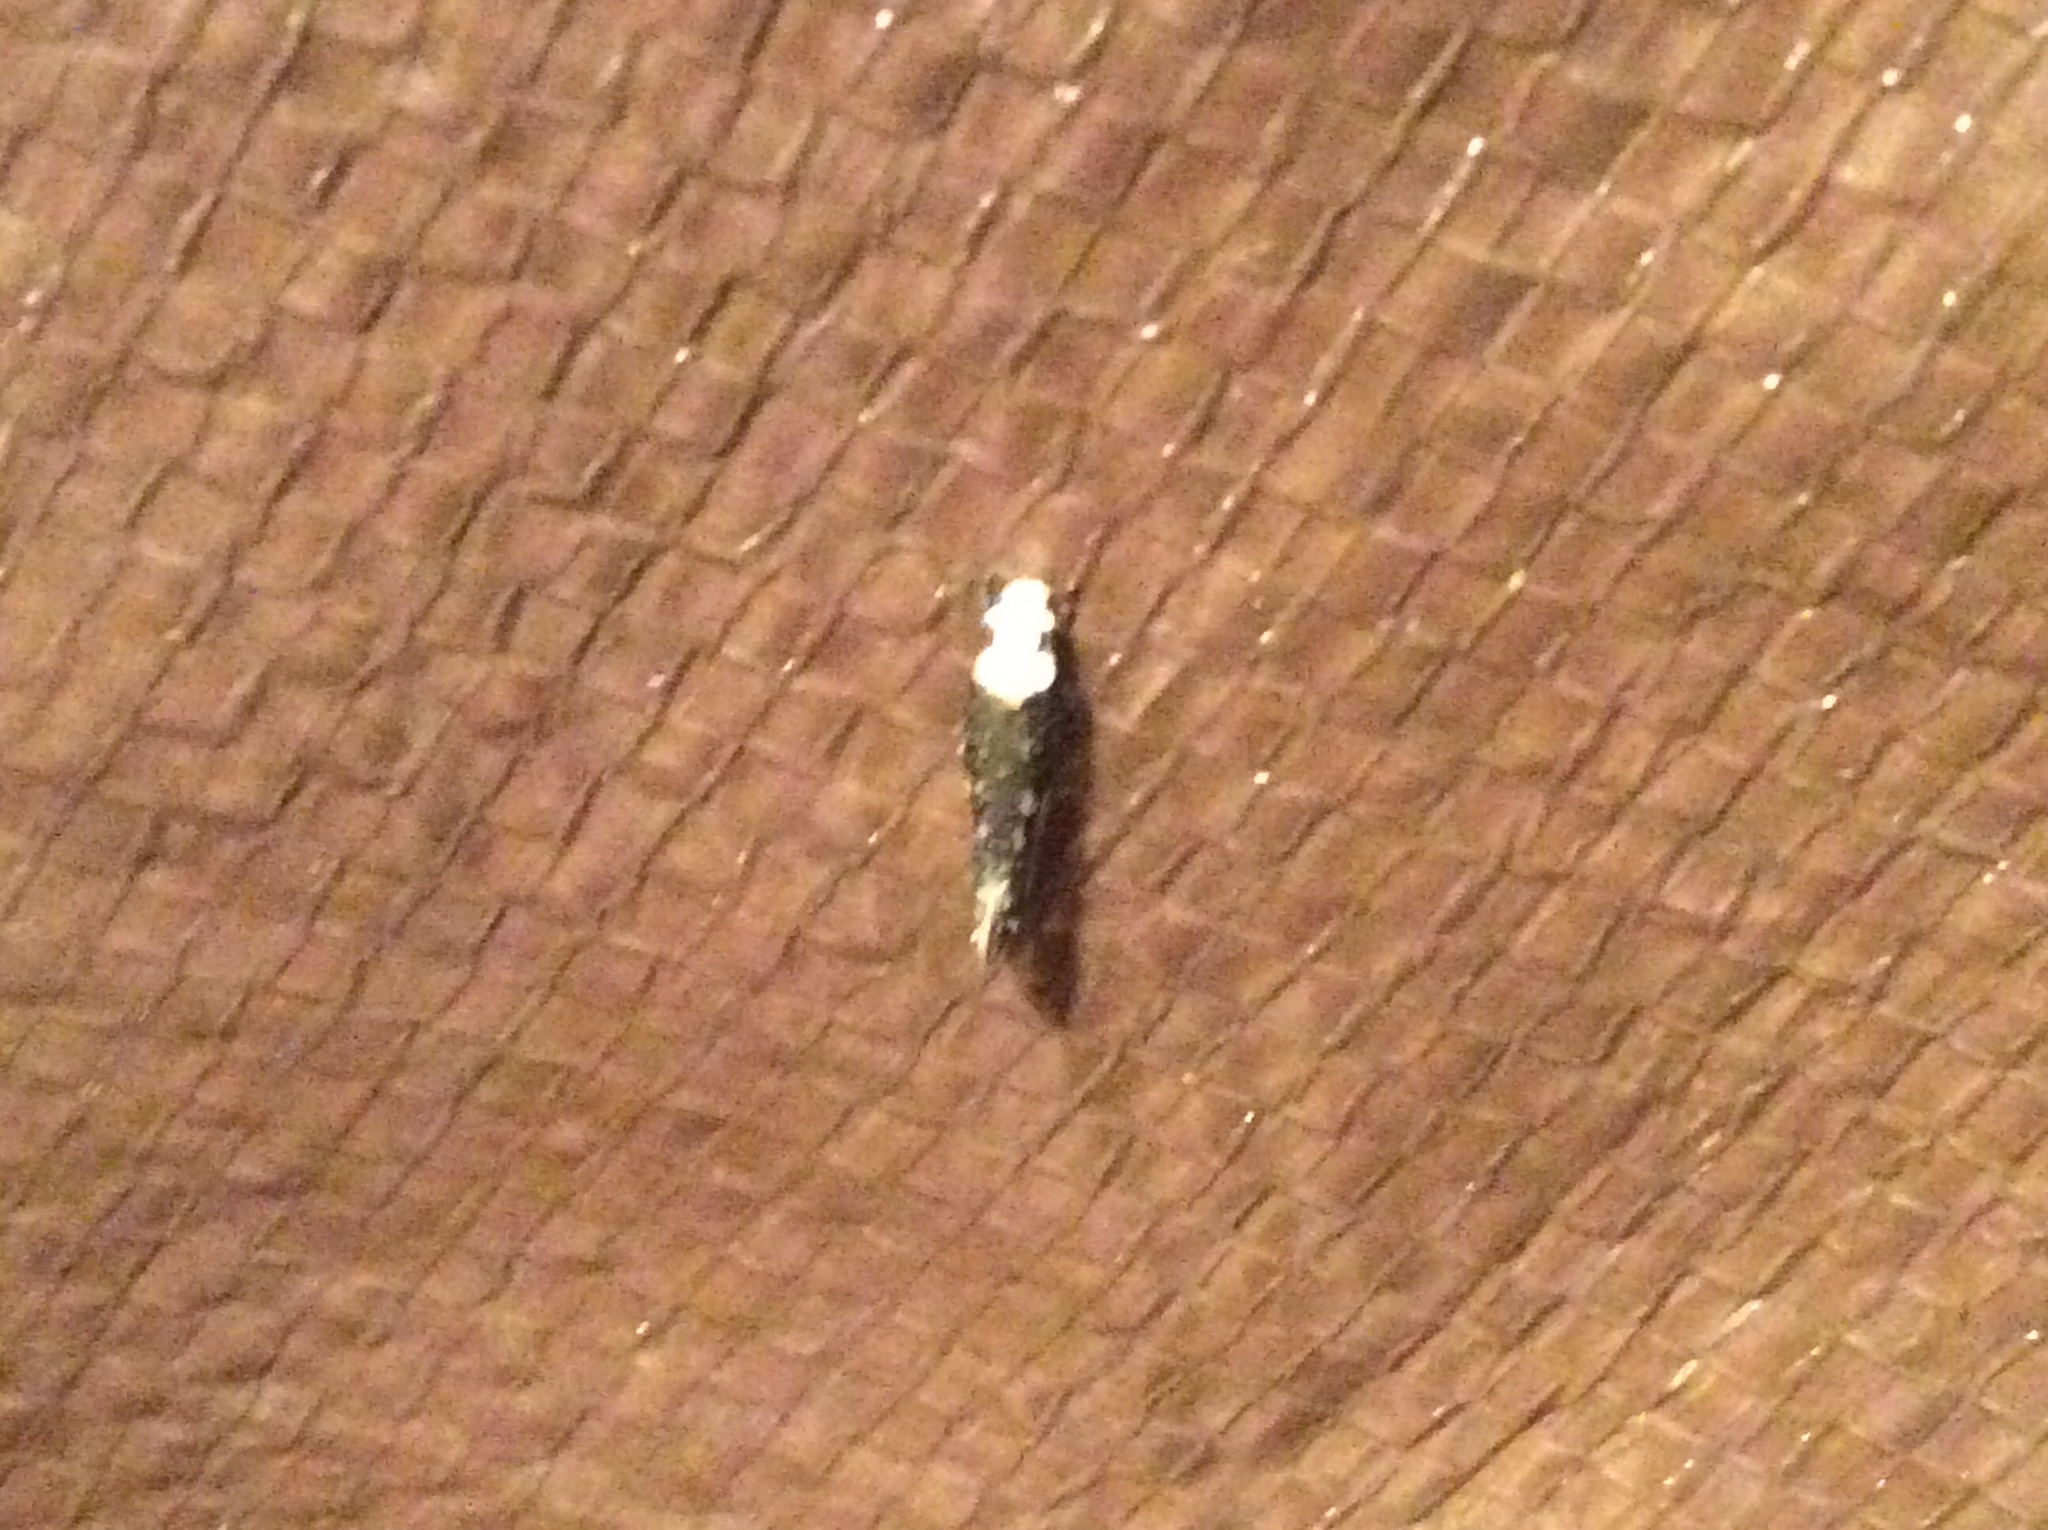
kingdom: Animalia
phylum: Arthropoda
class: Insecta
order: Lepidoptera
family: Tineidae
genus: Monopis
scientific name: Monopis longella
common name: Pavlovski's monopis moth
